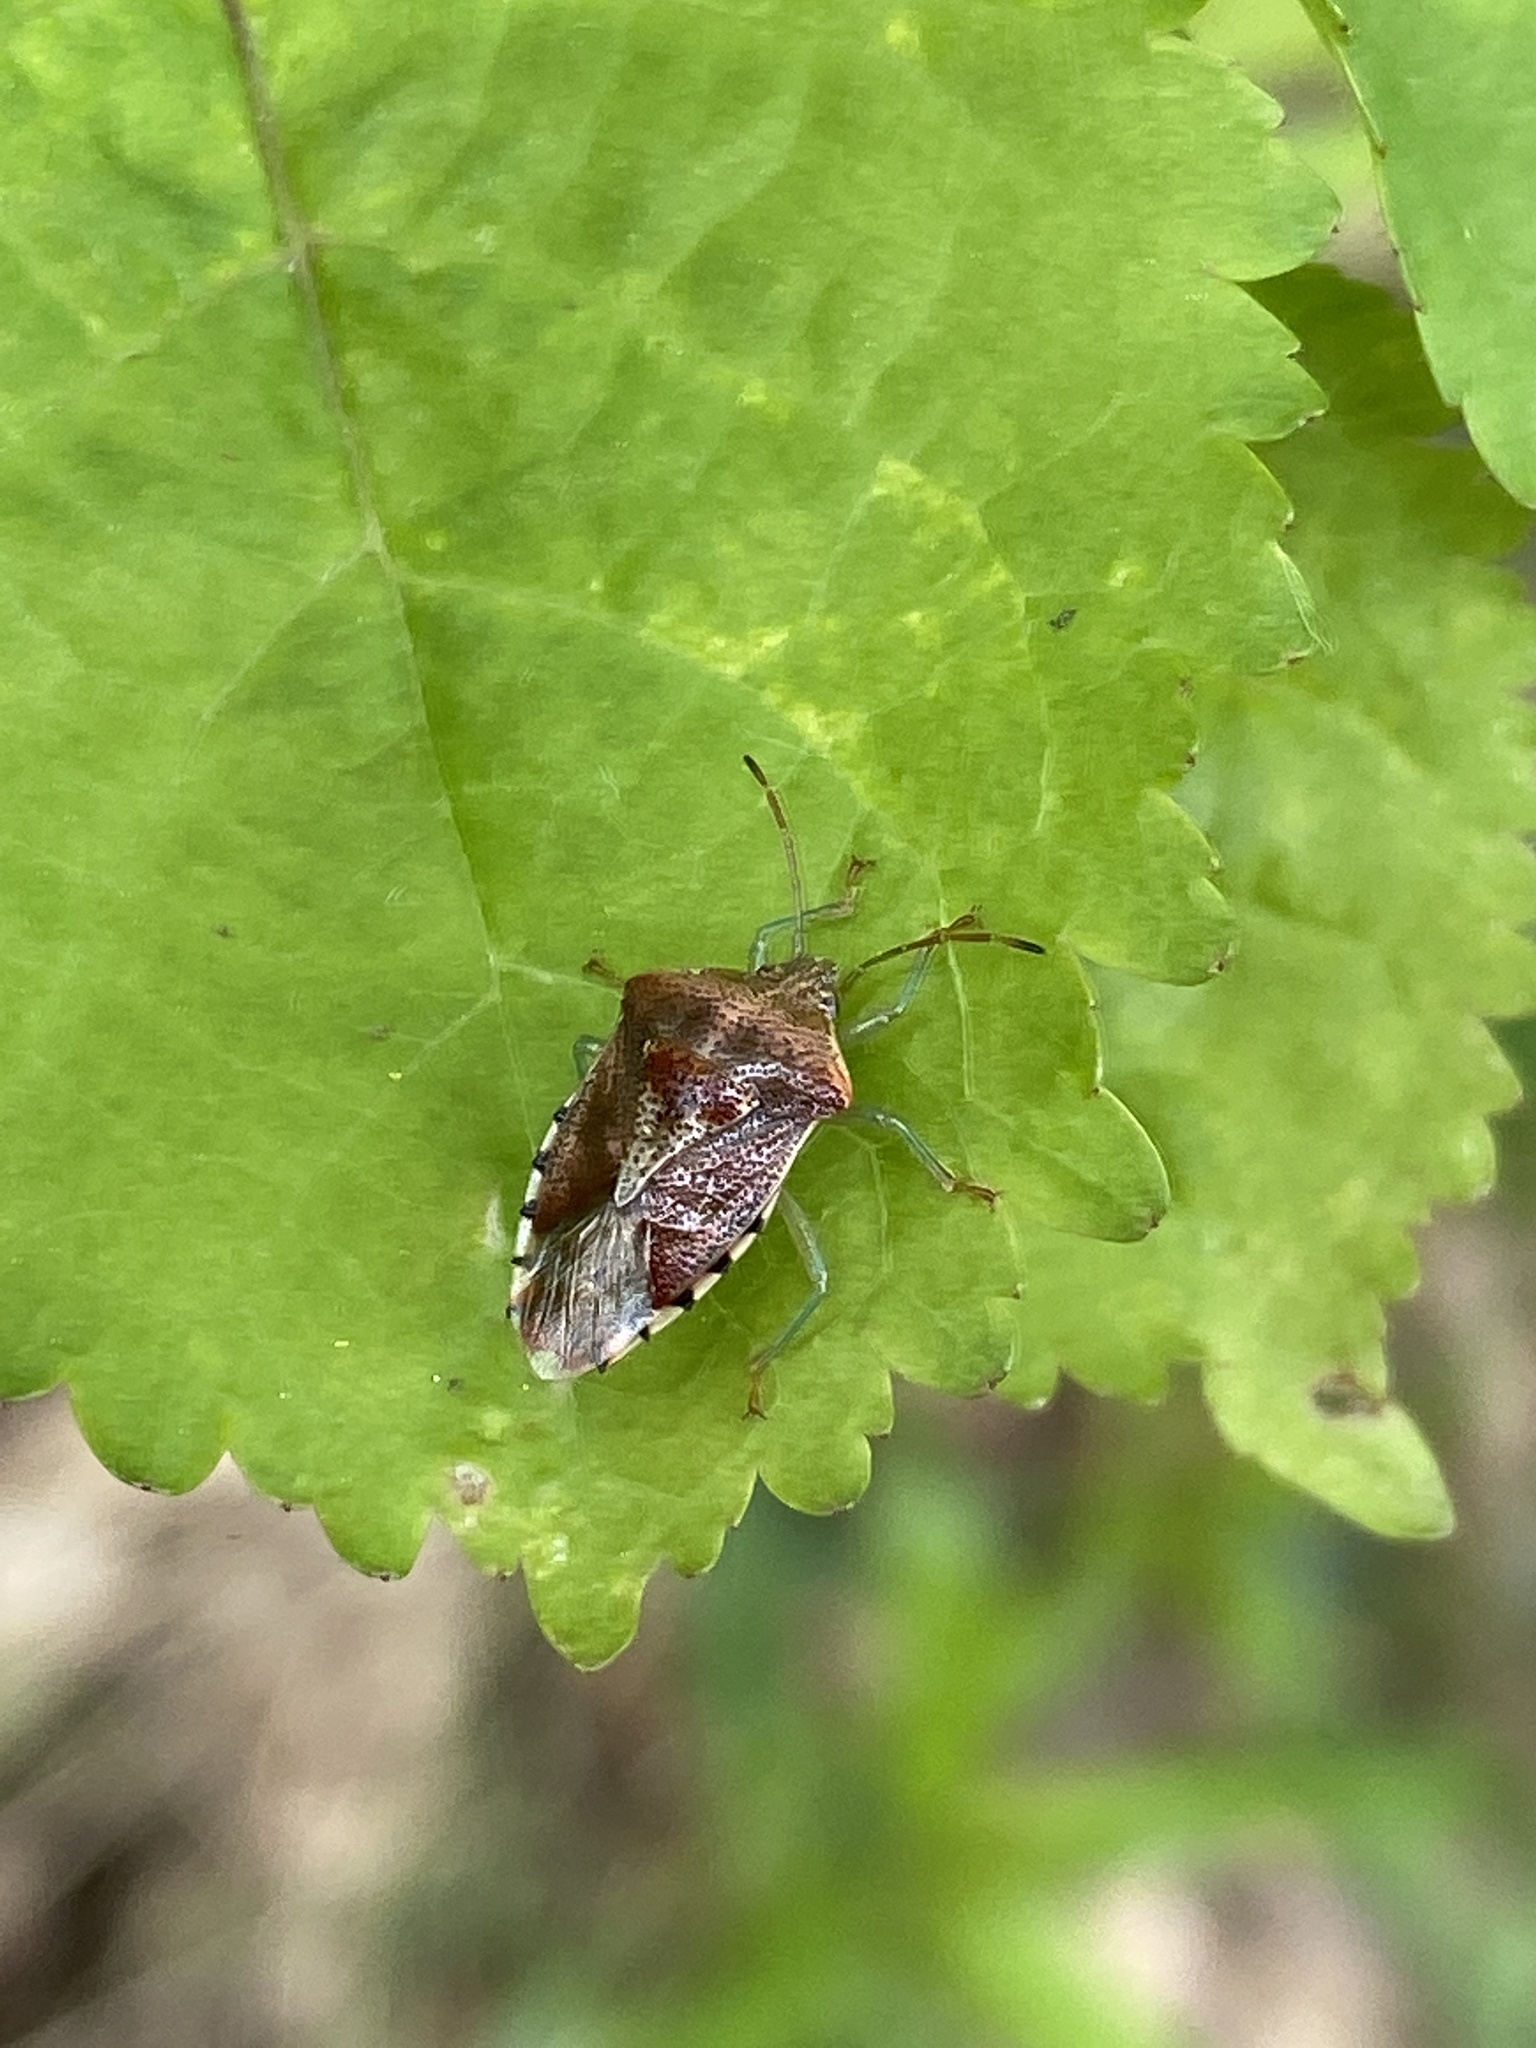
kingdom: Animalia
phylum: Arthropoda
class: Insecta
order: Hemiptera
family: Acanthosomatidae
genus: Elasmucha
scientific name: Elasmucha grisea
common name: Parent bug
